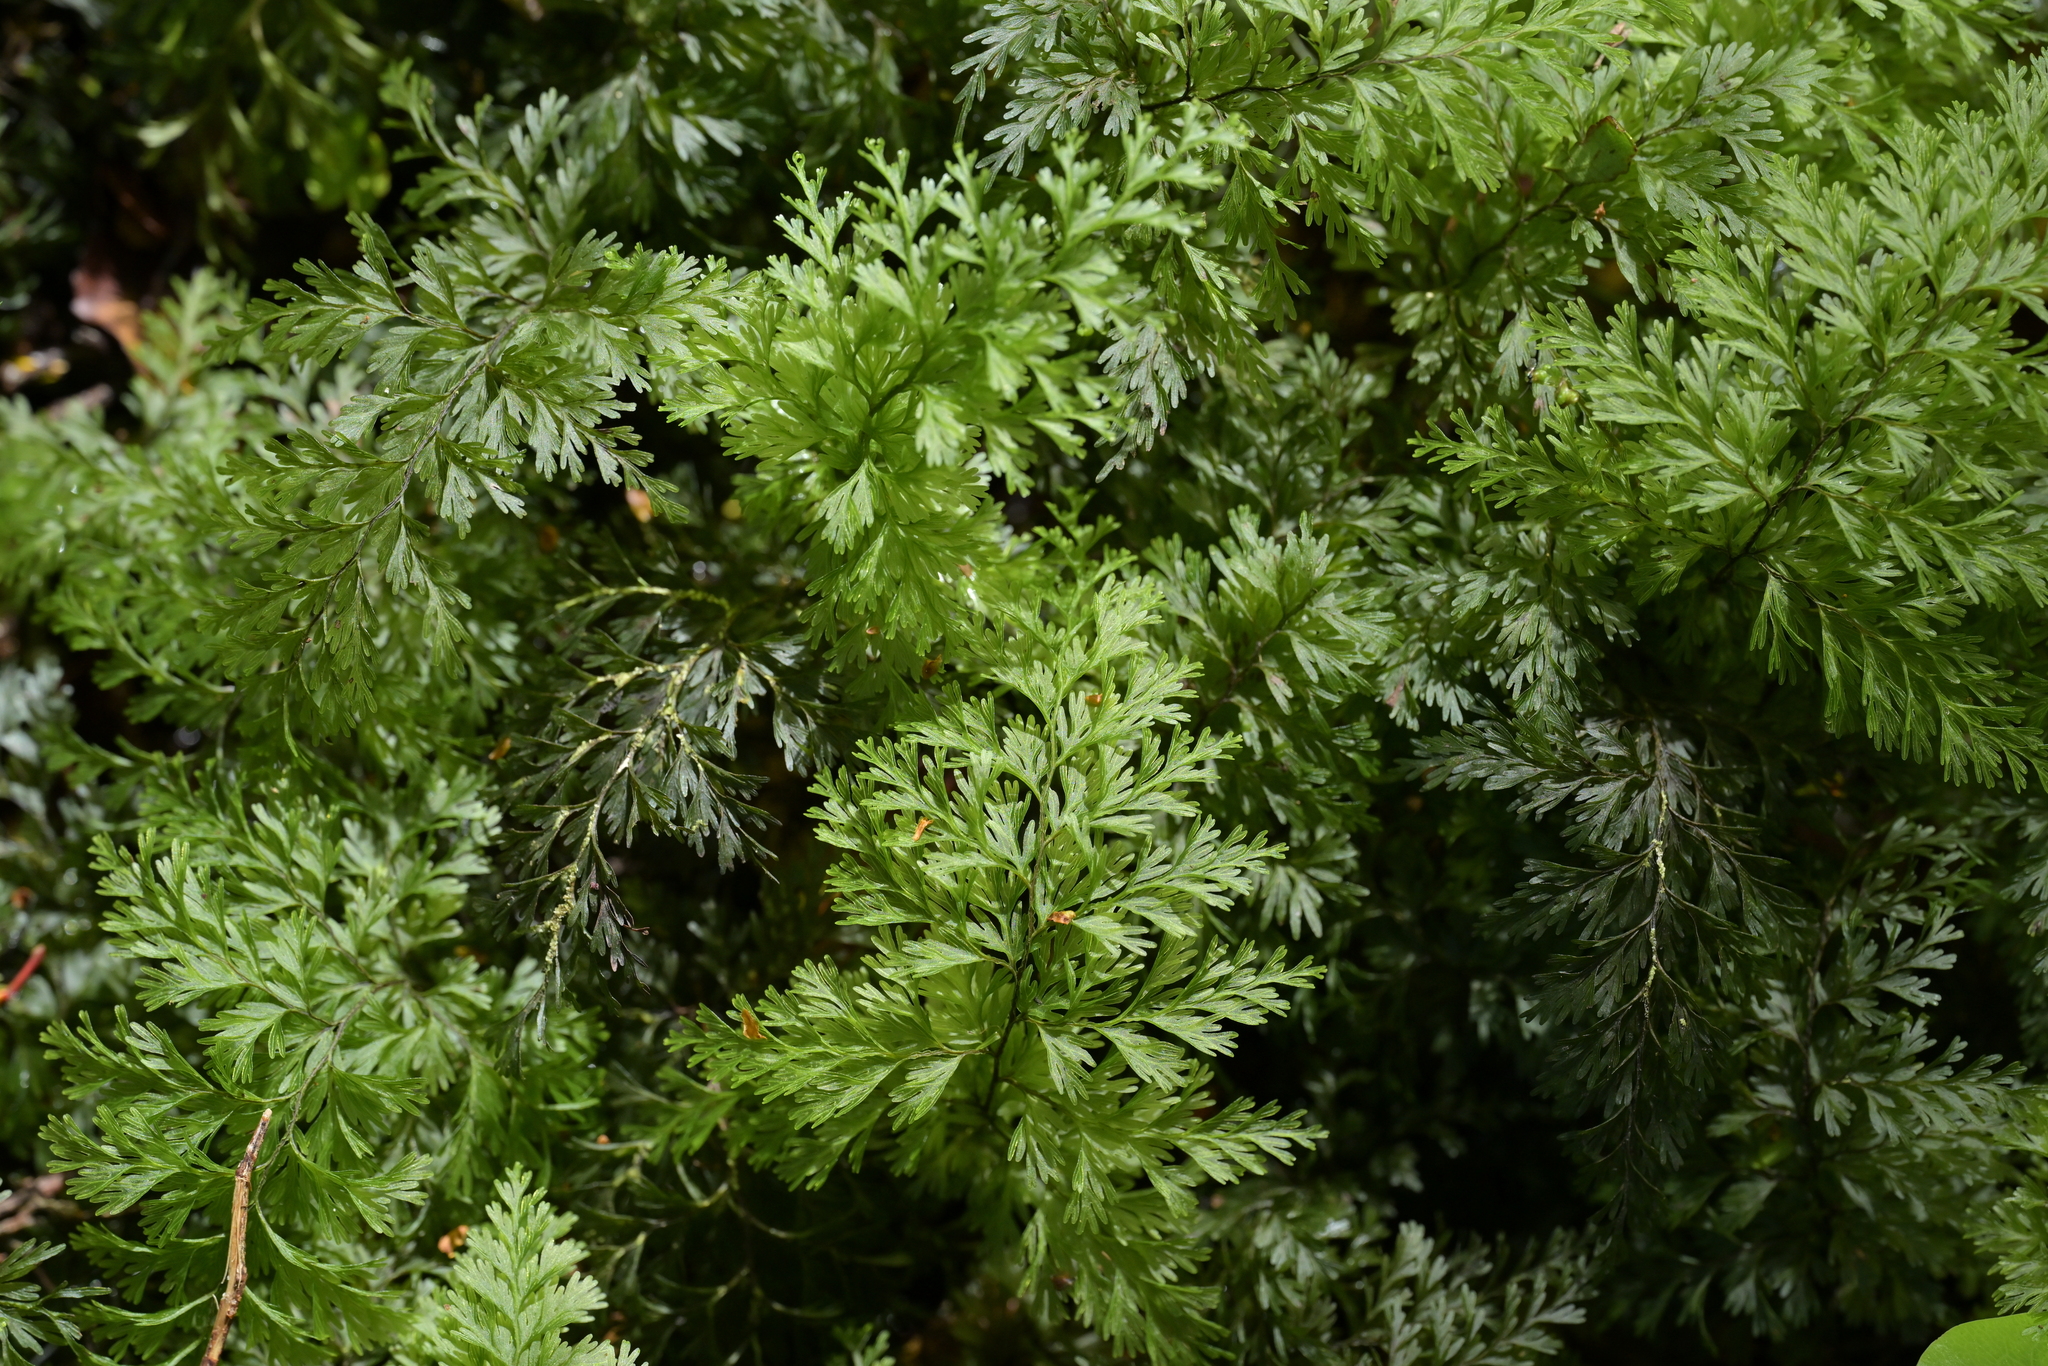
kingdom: Plantae
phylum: Tracheophyta
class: Polypodiopsida
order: Hymenophyllales
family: Hymenophyllaceae
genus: Hymenophyllum
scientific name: Hymenophyllum demissum
